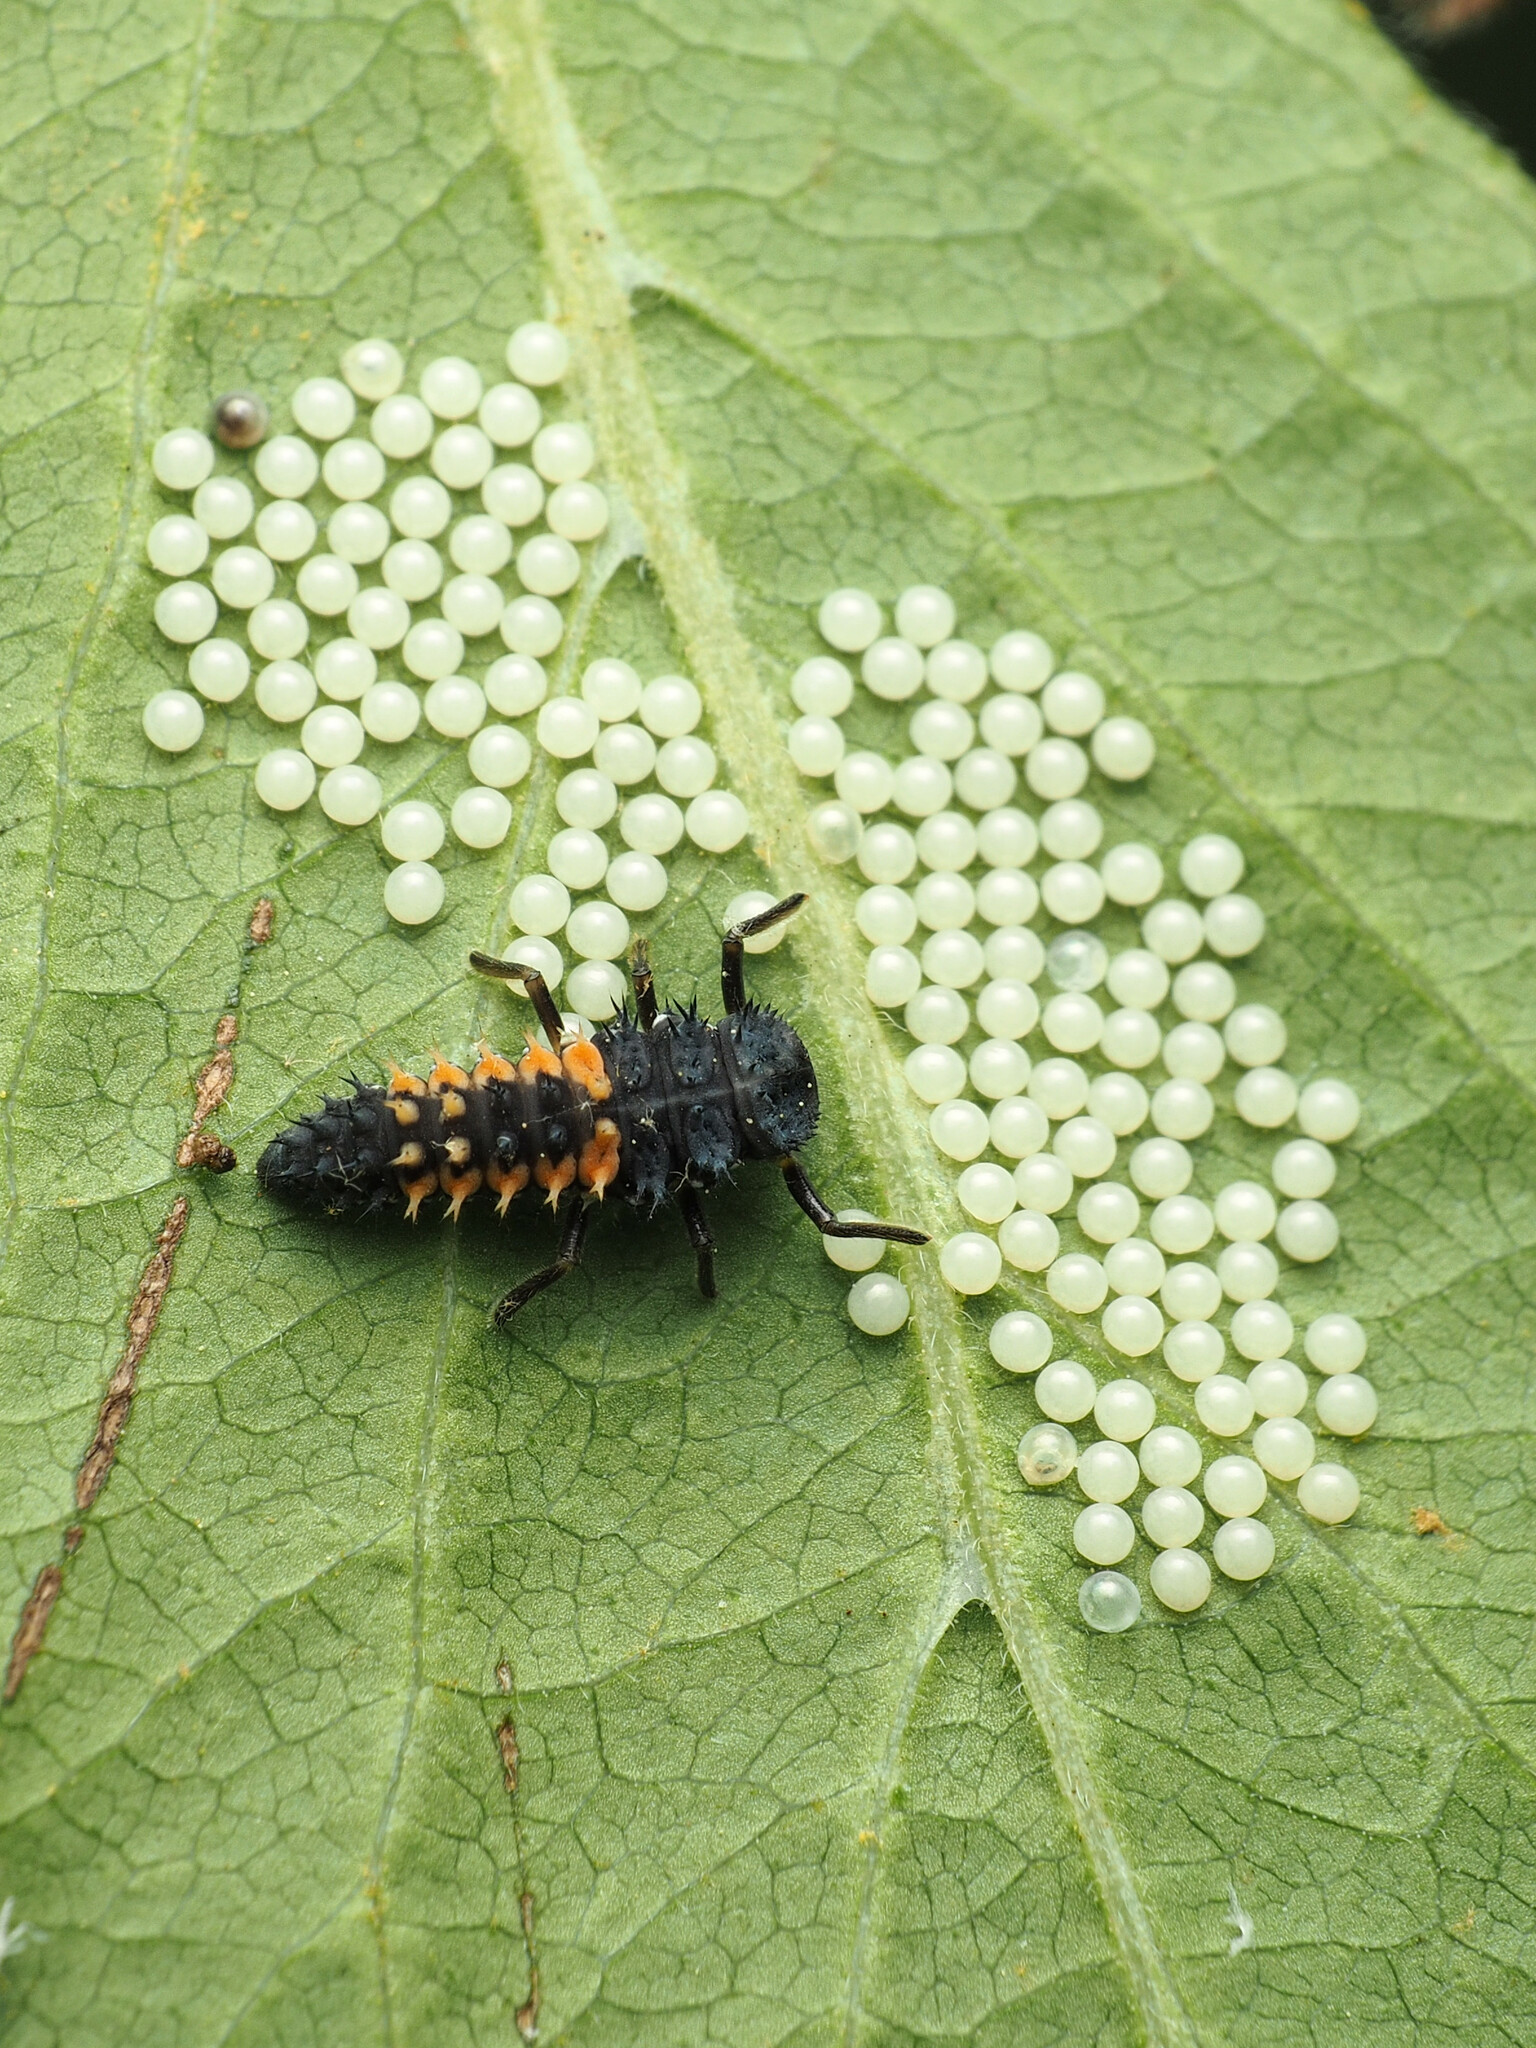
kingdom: Animalia
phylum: Arthropoda
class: Insecta
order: Coleoptera
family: Coccinellidae
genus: Harmonia
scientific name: Harmonia axyridis
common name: Harlequin ladybird
